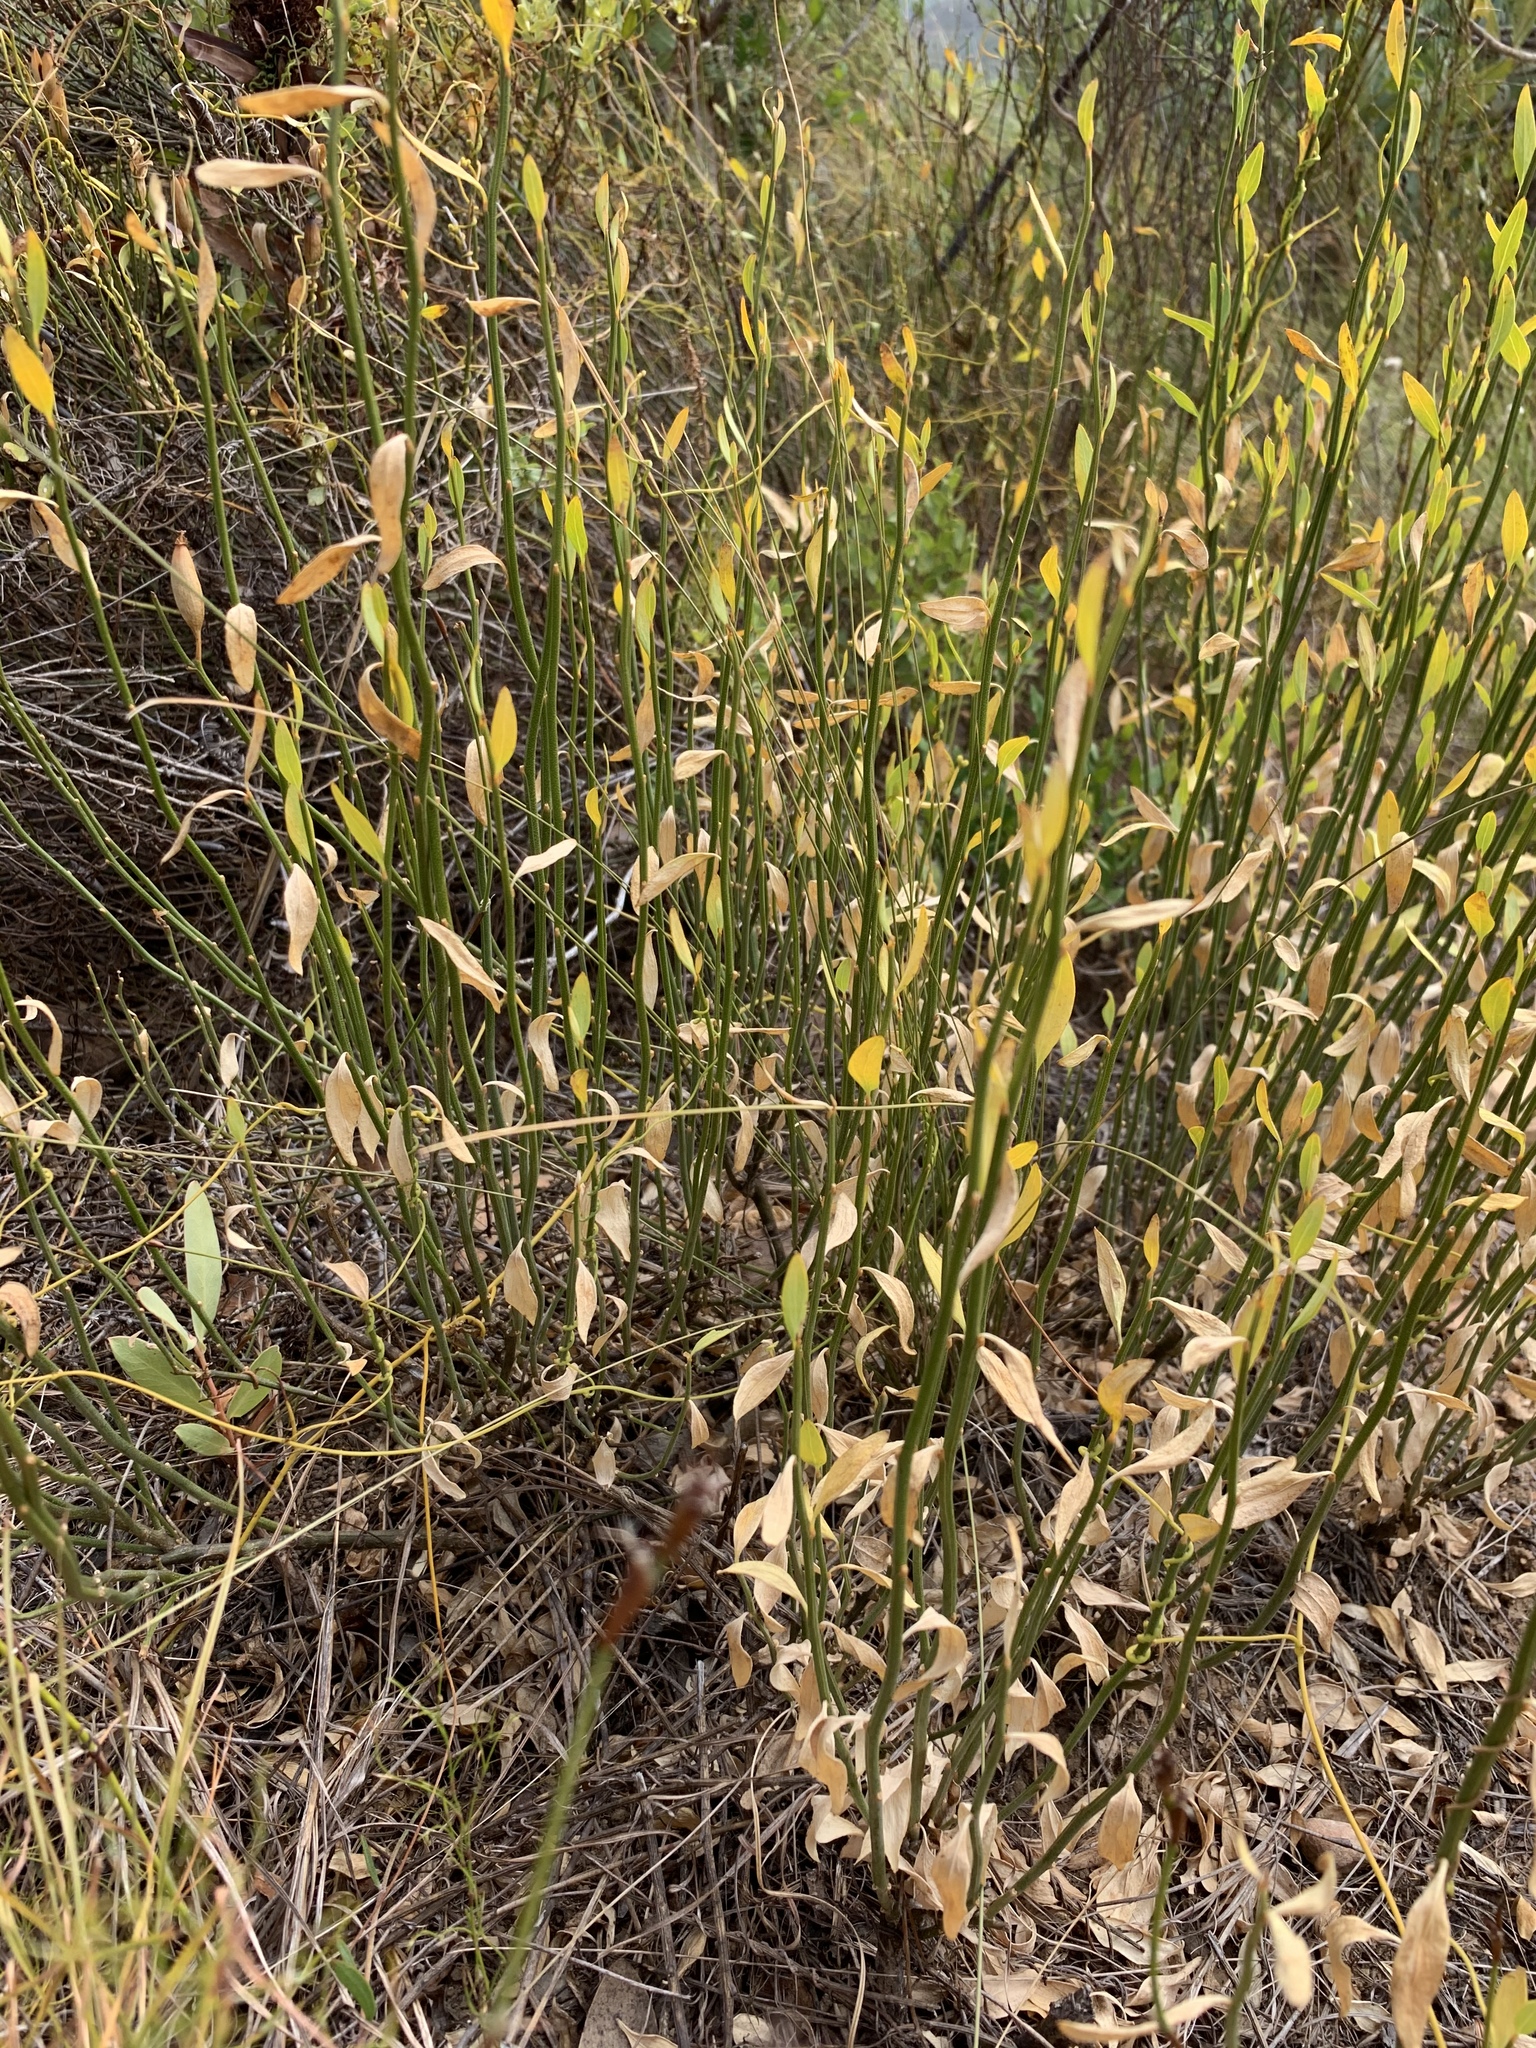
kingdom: Plantae
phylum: Tracheophyta
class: Magnoliopsida
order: Solanales
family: Montiniaceae
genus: Montinia
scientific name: Montinia caryophyllacea
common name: Wild clove-bush
